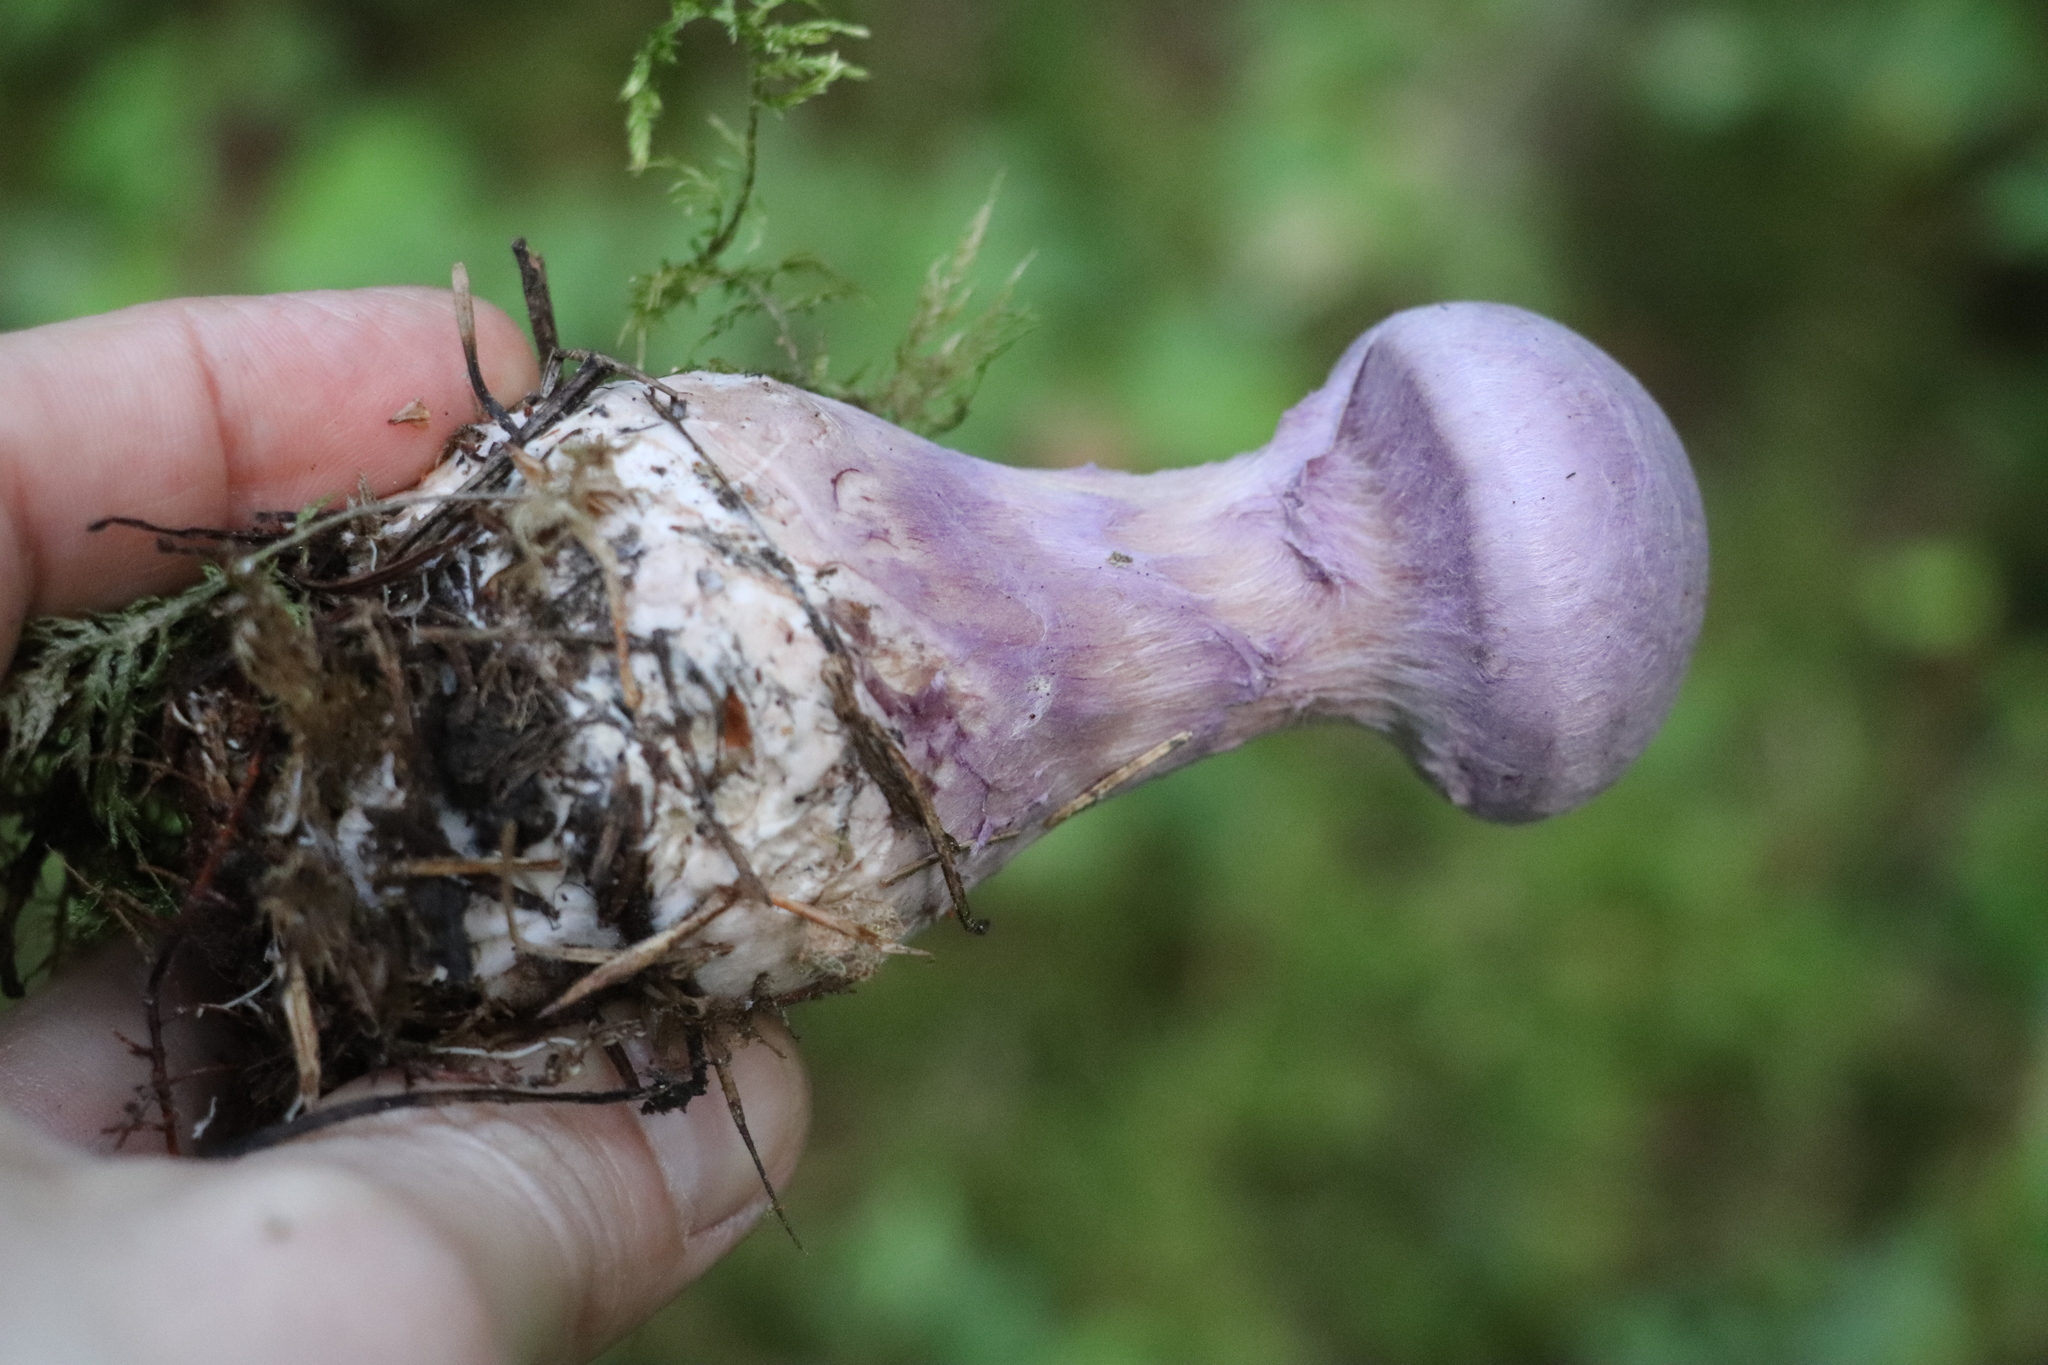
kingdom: Fungi
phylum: Basidiomycota
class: Agaricomycetes
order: Agaricales
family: Cortinariaceae
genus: Cortinarius
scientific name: Cortinarius camphoratus
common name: Goatcheese webcap
